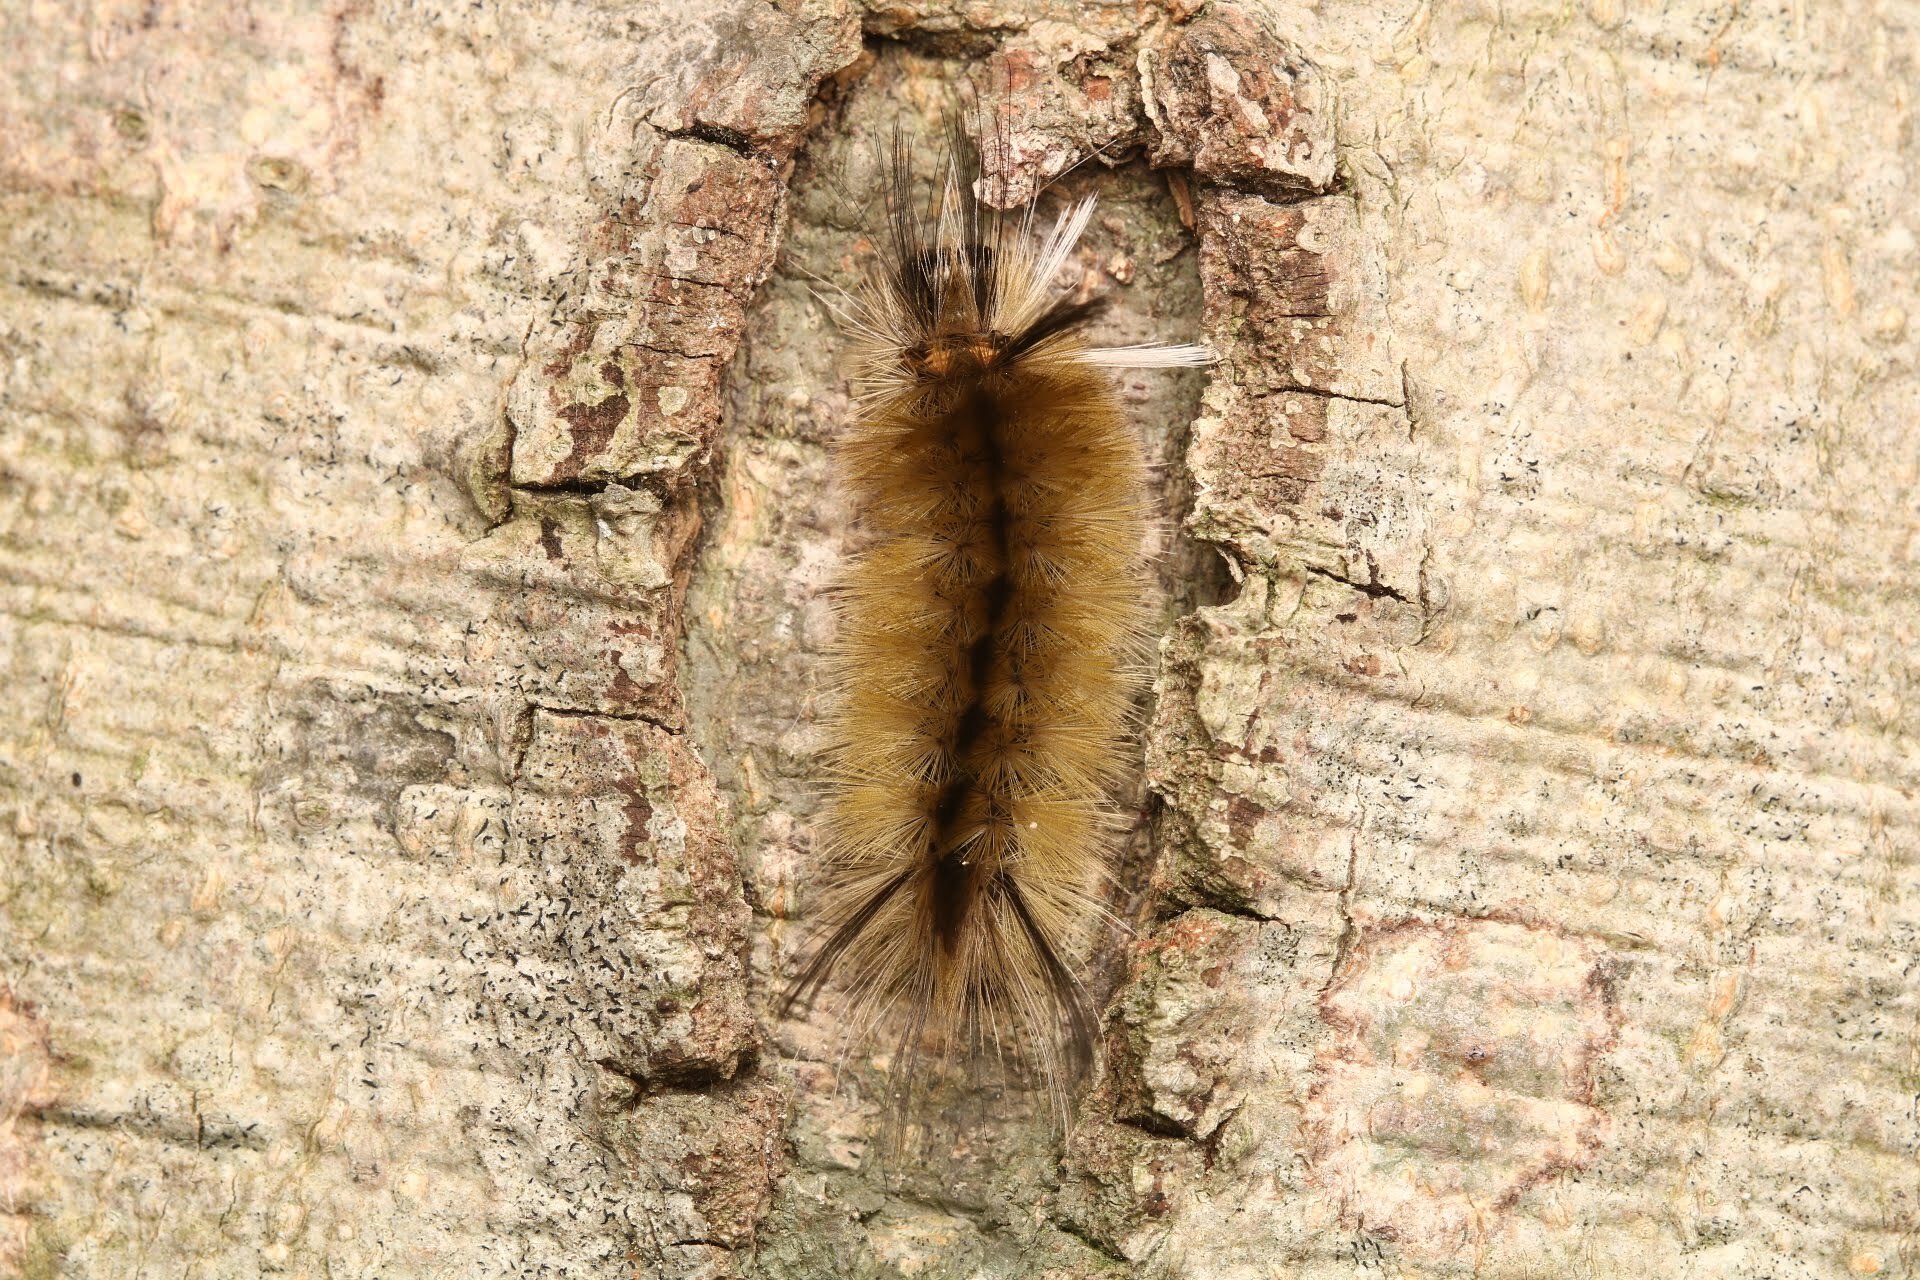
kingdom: Animalia
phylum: Arthropoda
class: Insecta
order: Lepidoptera
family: Erebidae
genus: Halysidota
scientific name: Halysidota tessellaris
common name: Banded tussock moth
